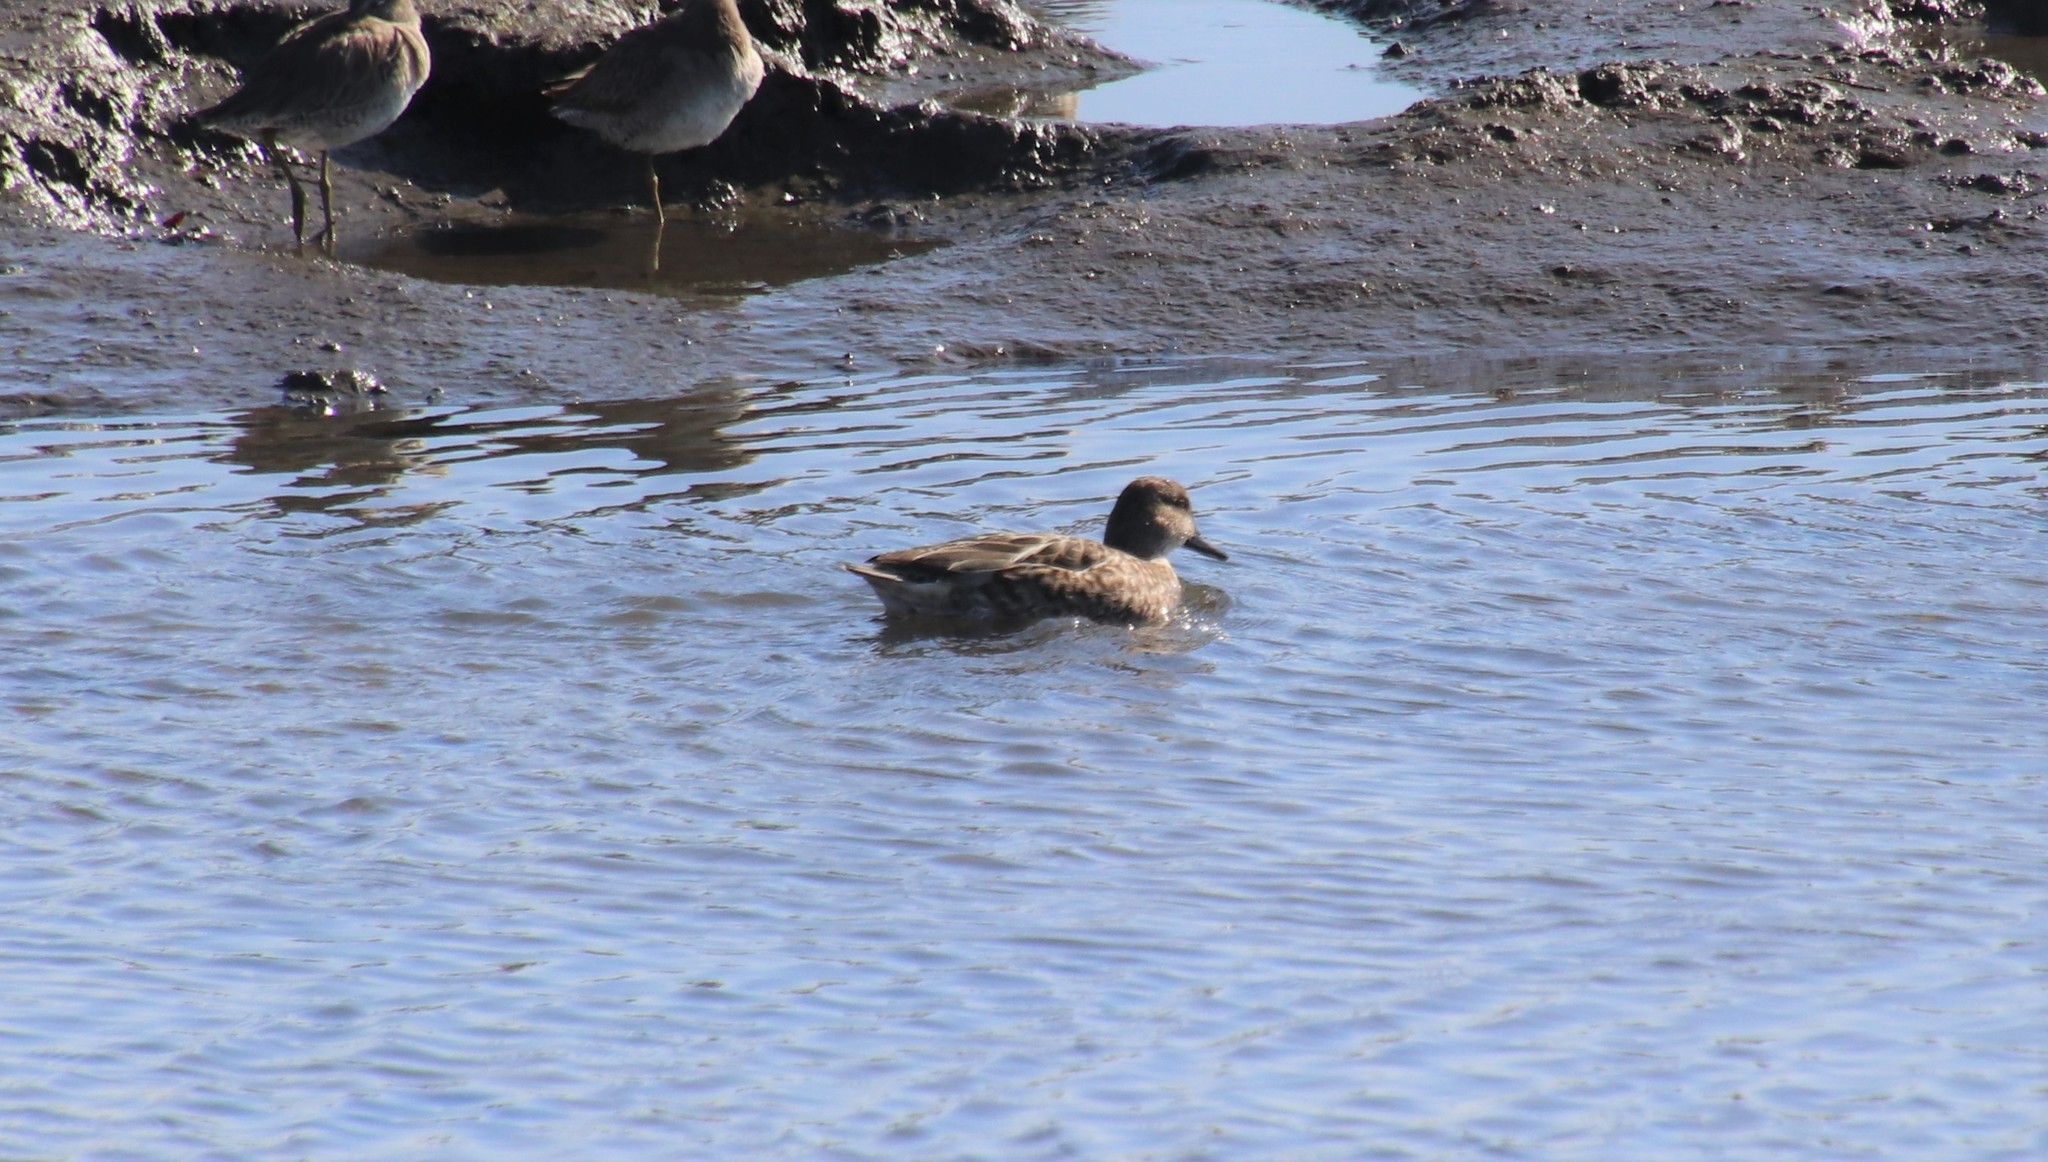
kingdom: Animalia
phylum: Chordata
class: Aves
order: Anseriformes
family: Anatidae
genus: Anas
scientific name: Anas crecca
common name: Eurasian teal
